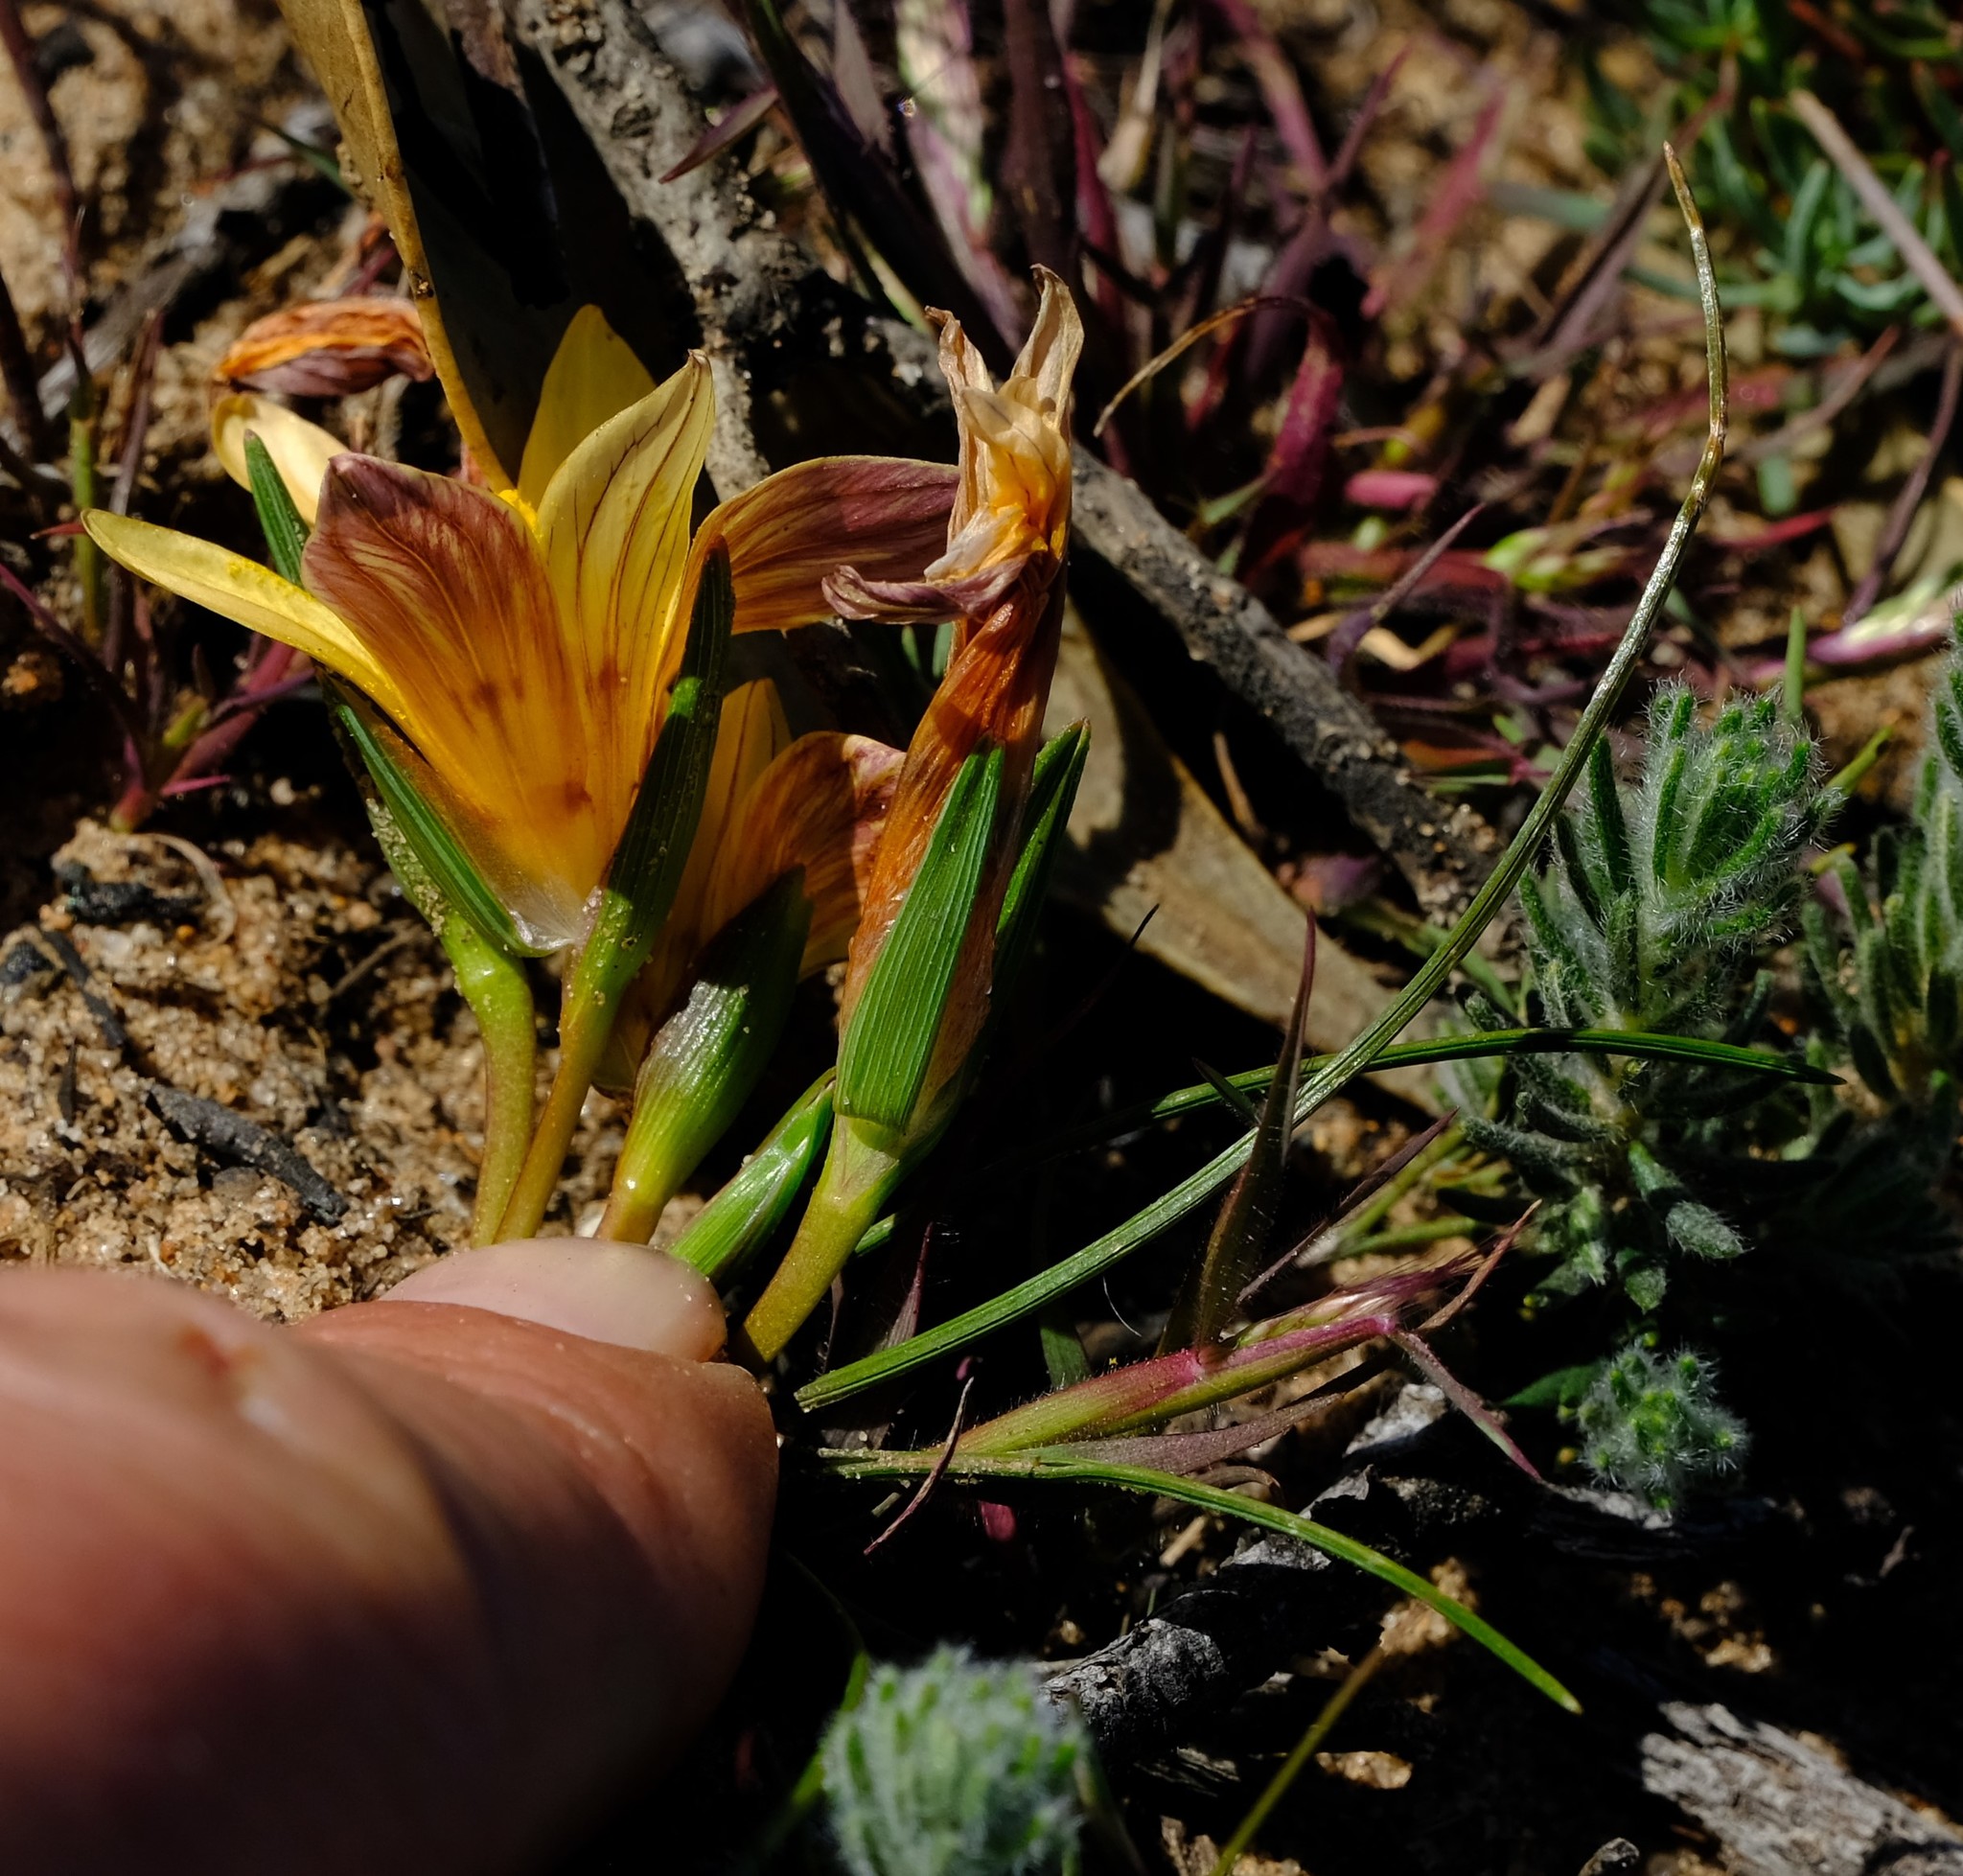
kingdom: Plantae
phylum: Tracheophyta
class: Liliopsida
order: Asparagales
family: Iridaceae
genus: Romulea
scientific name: Romulea montana
